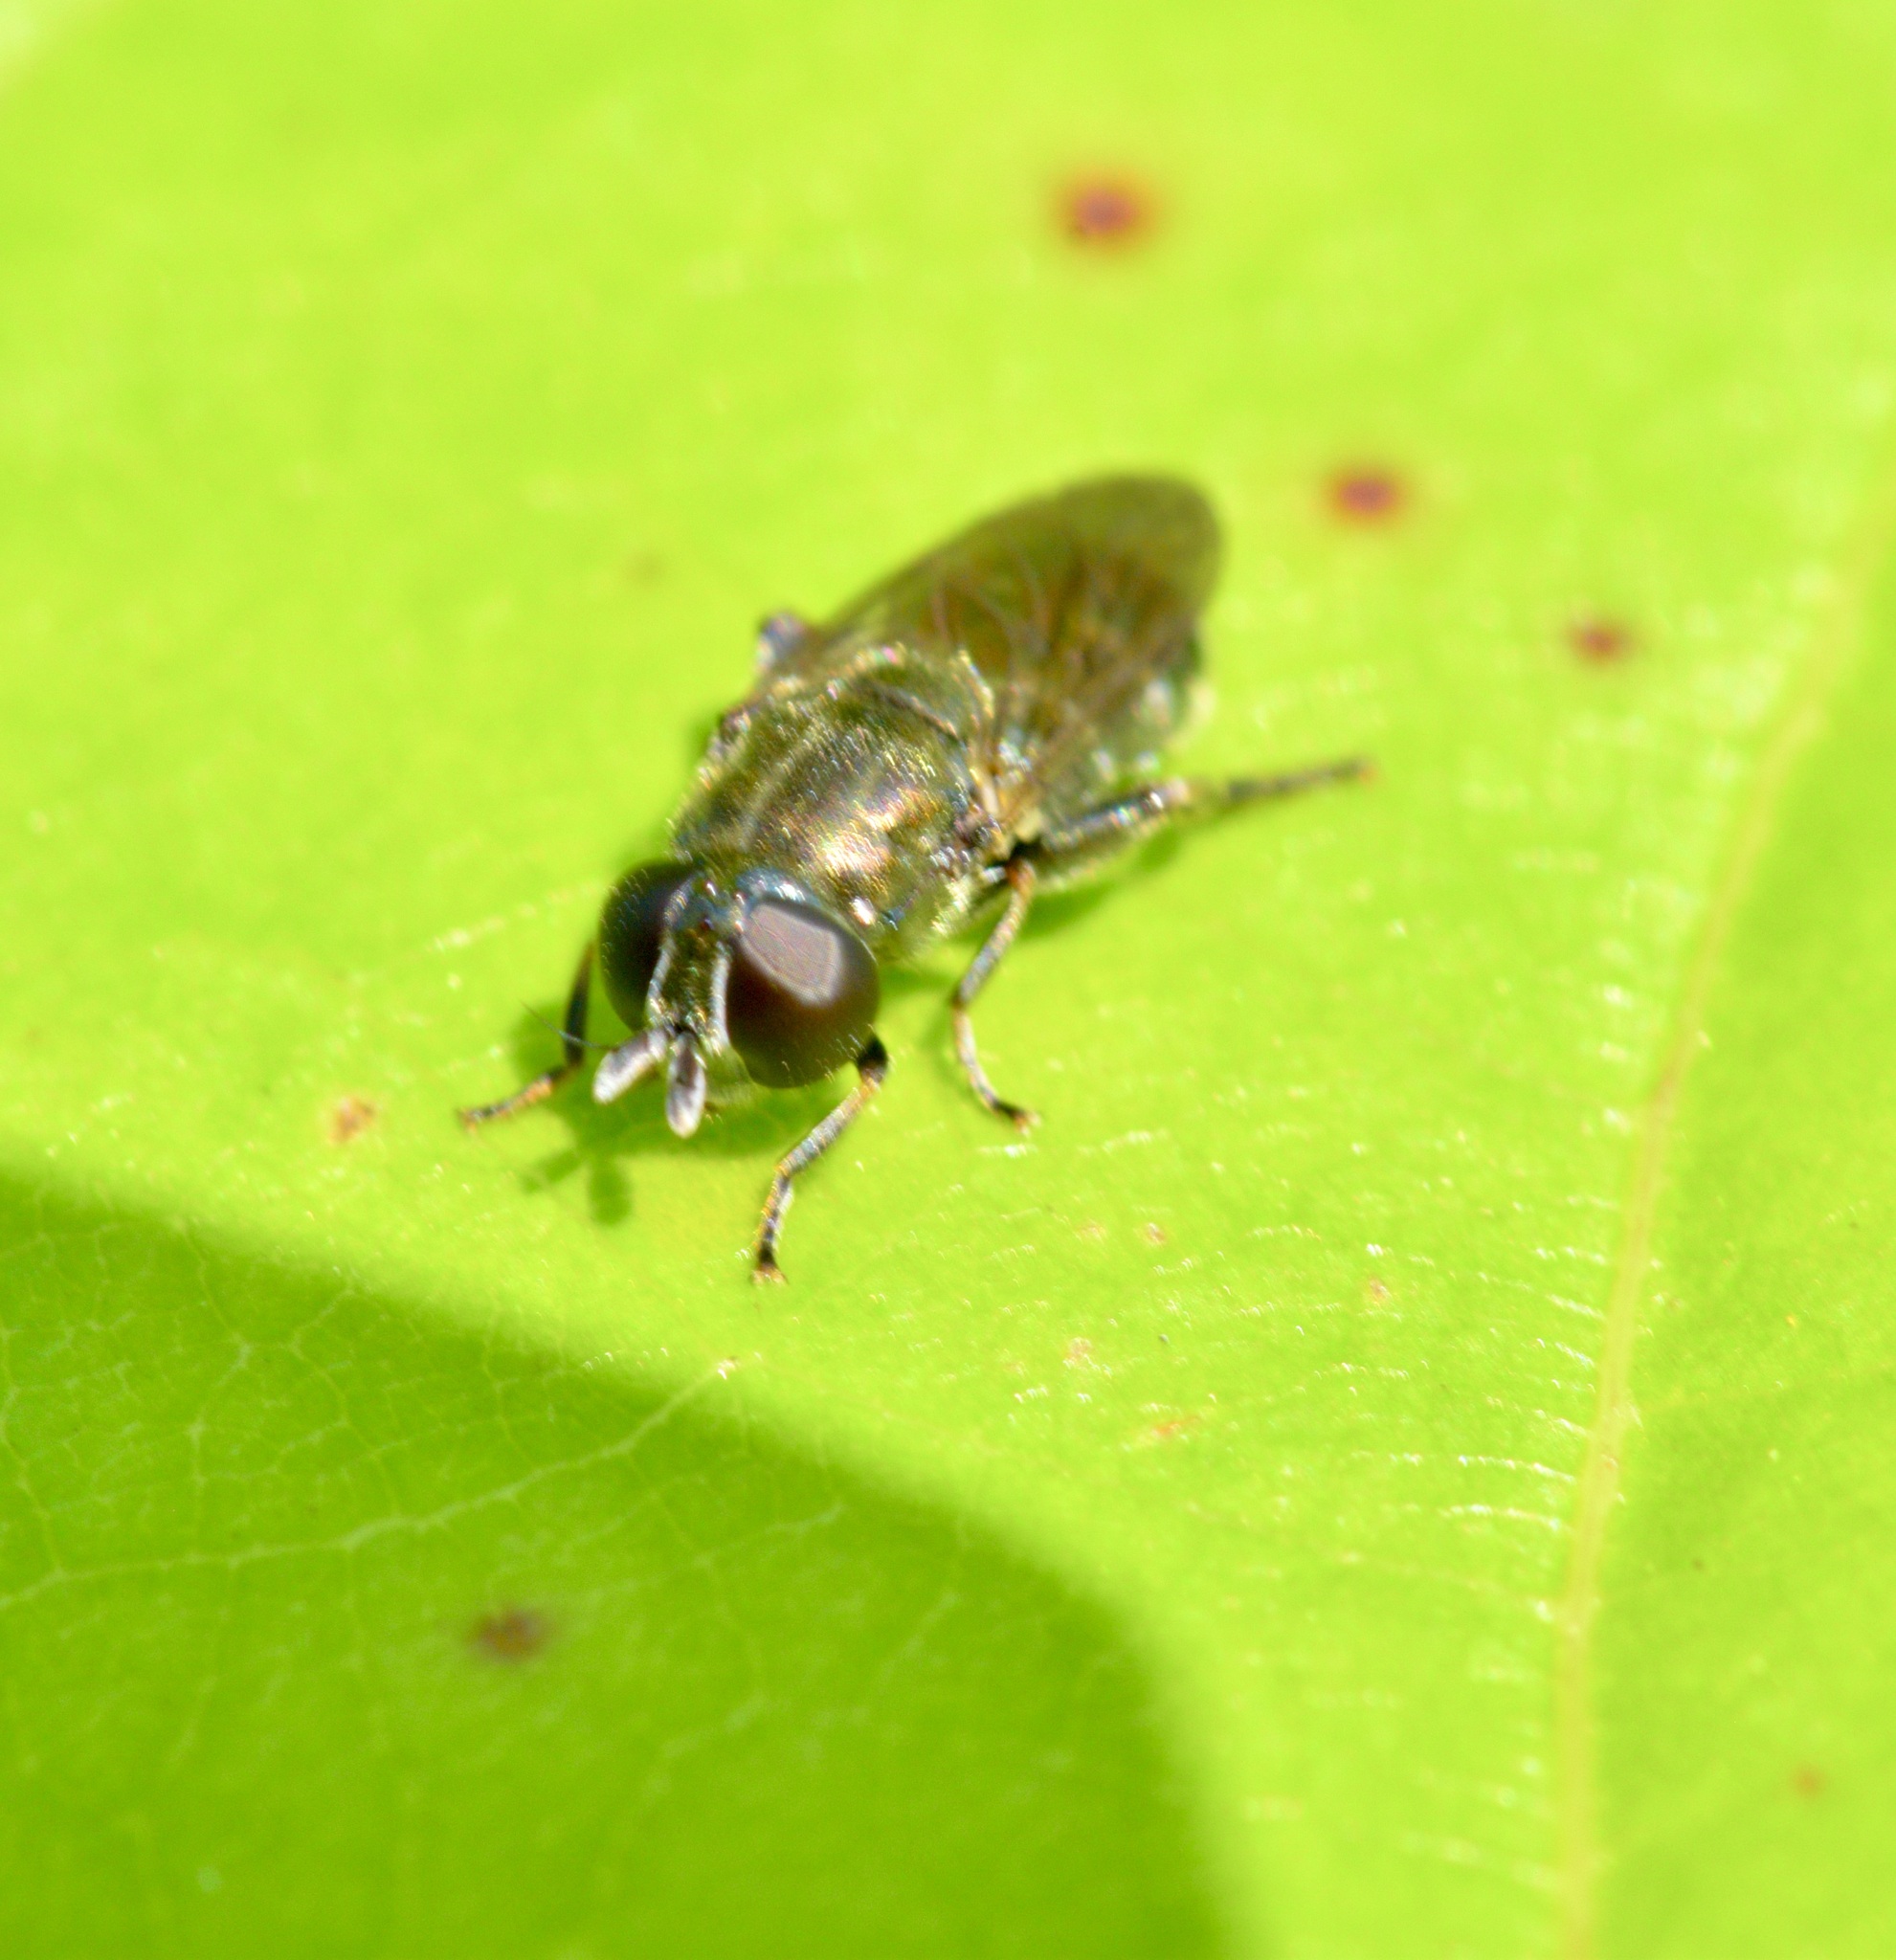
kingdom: Animalia
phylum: Arthropoda
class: Insecta
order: Diptera
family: Syrphidae
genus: Eumerus
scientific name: Eumerus
